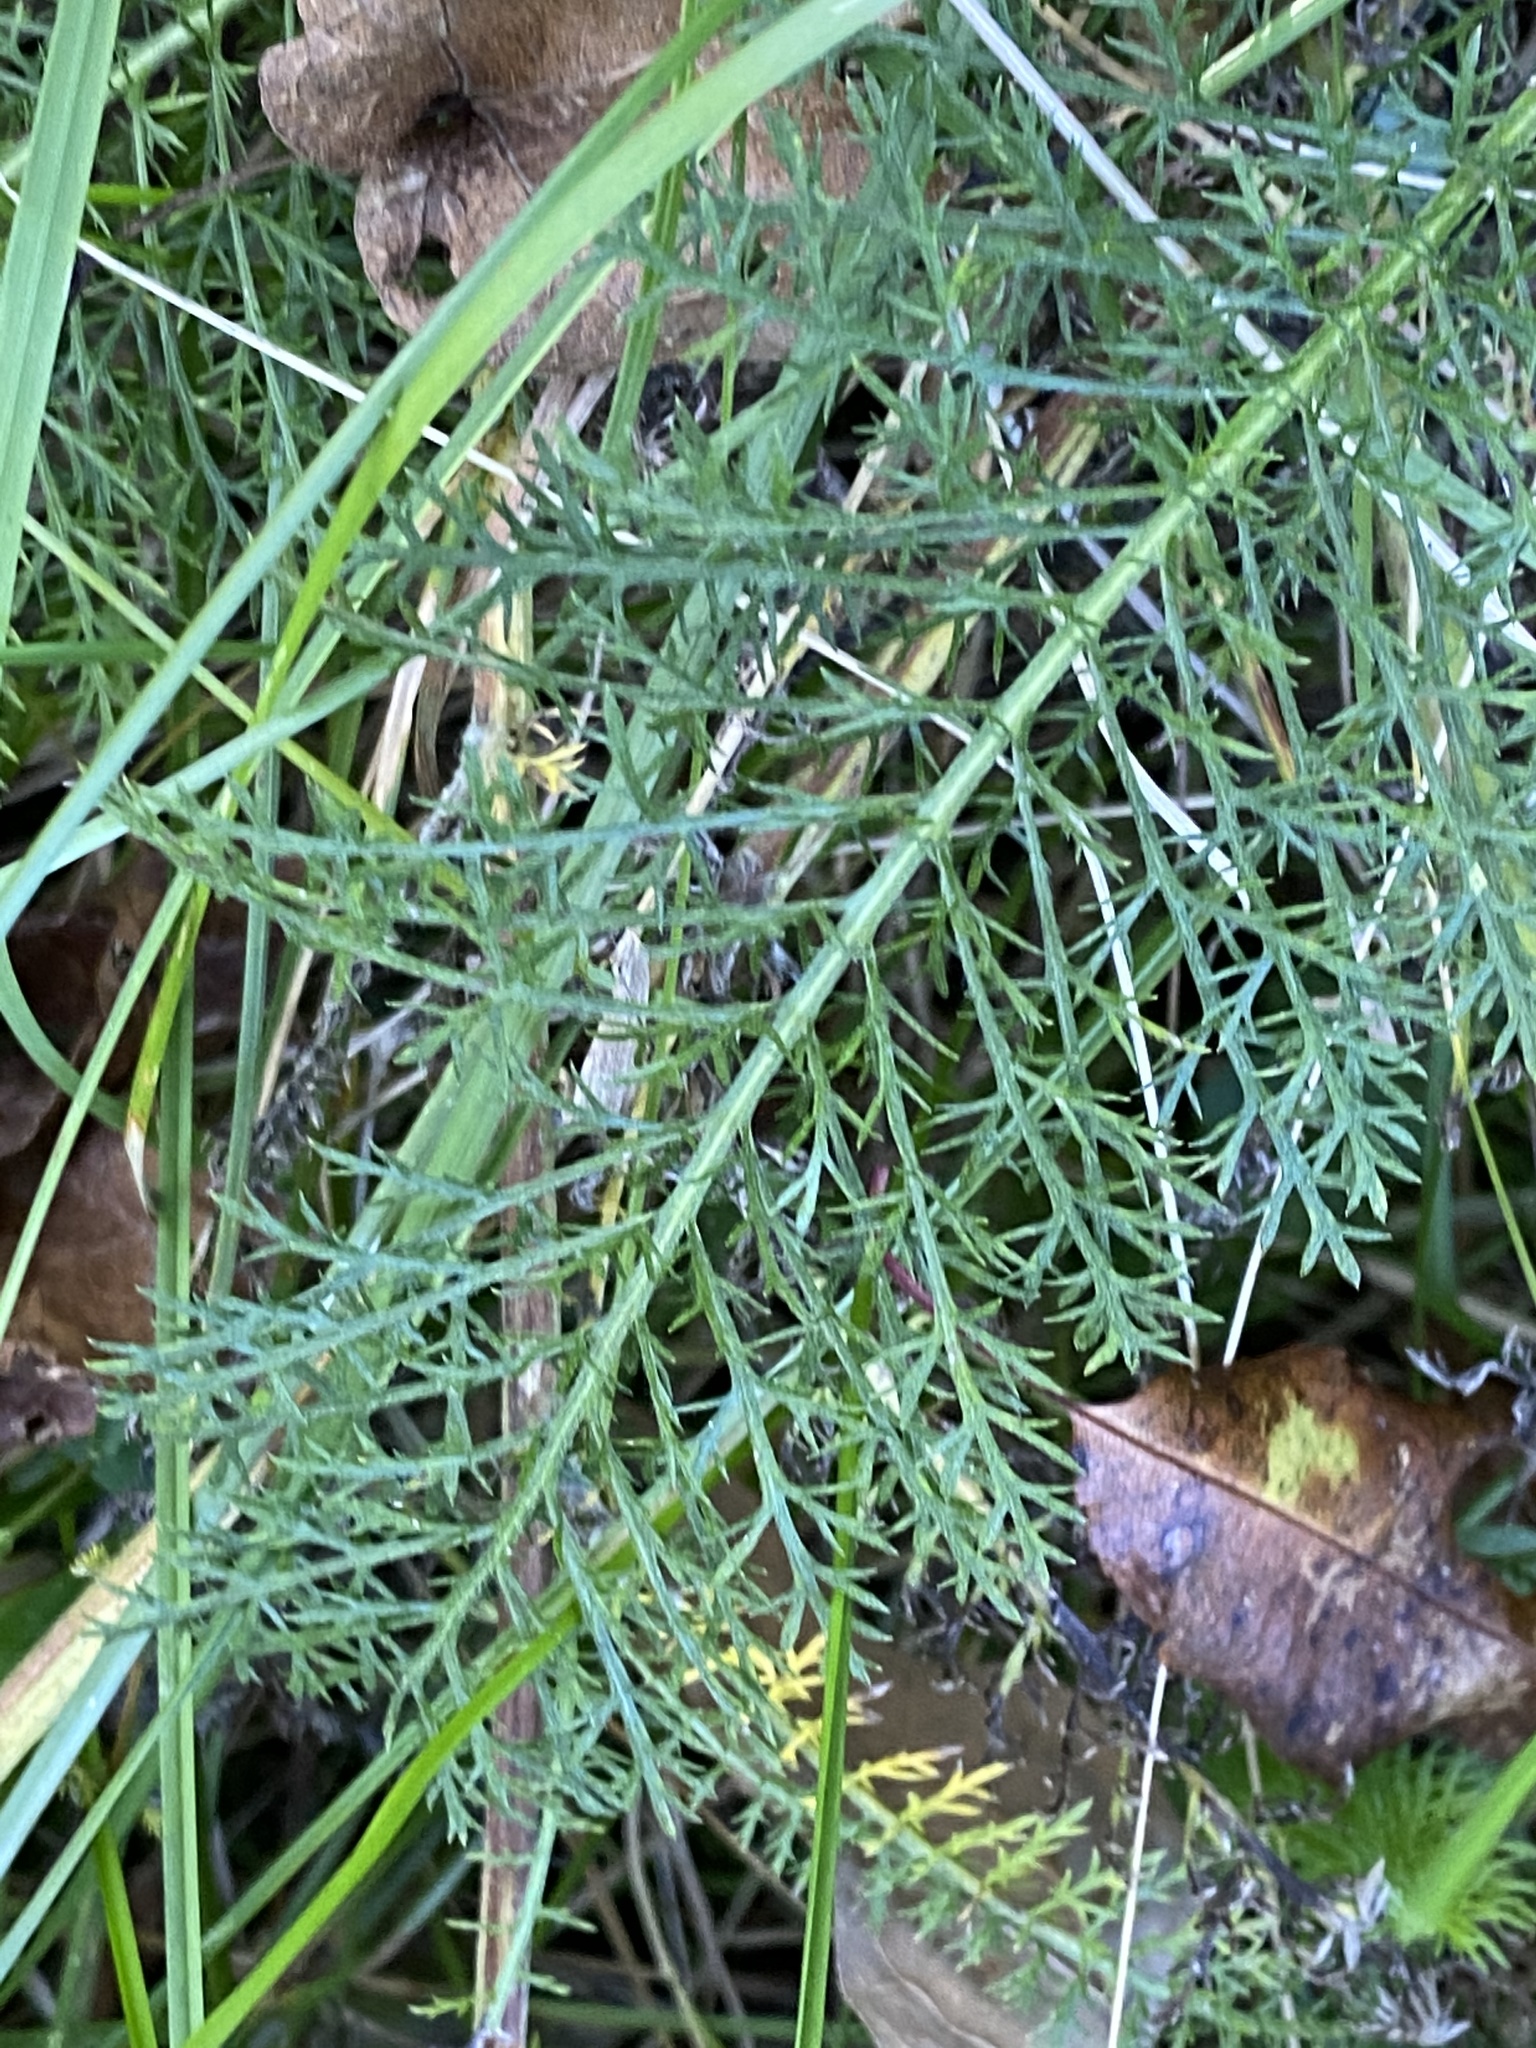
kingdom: Plantae
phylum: Tracheophyta
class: Magnoliopsida
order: Asterales
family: Asteraceae
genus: Achillea
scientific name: Achillea millefolium
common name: Yarrow
